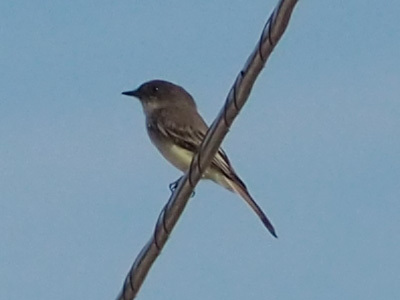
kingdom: Animalia
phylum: Chordata
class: Aves
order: Passeriformes
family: Tyrannidae
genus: Sayornis
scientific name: Sayornis phoebe
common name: Eastern phoebe
